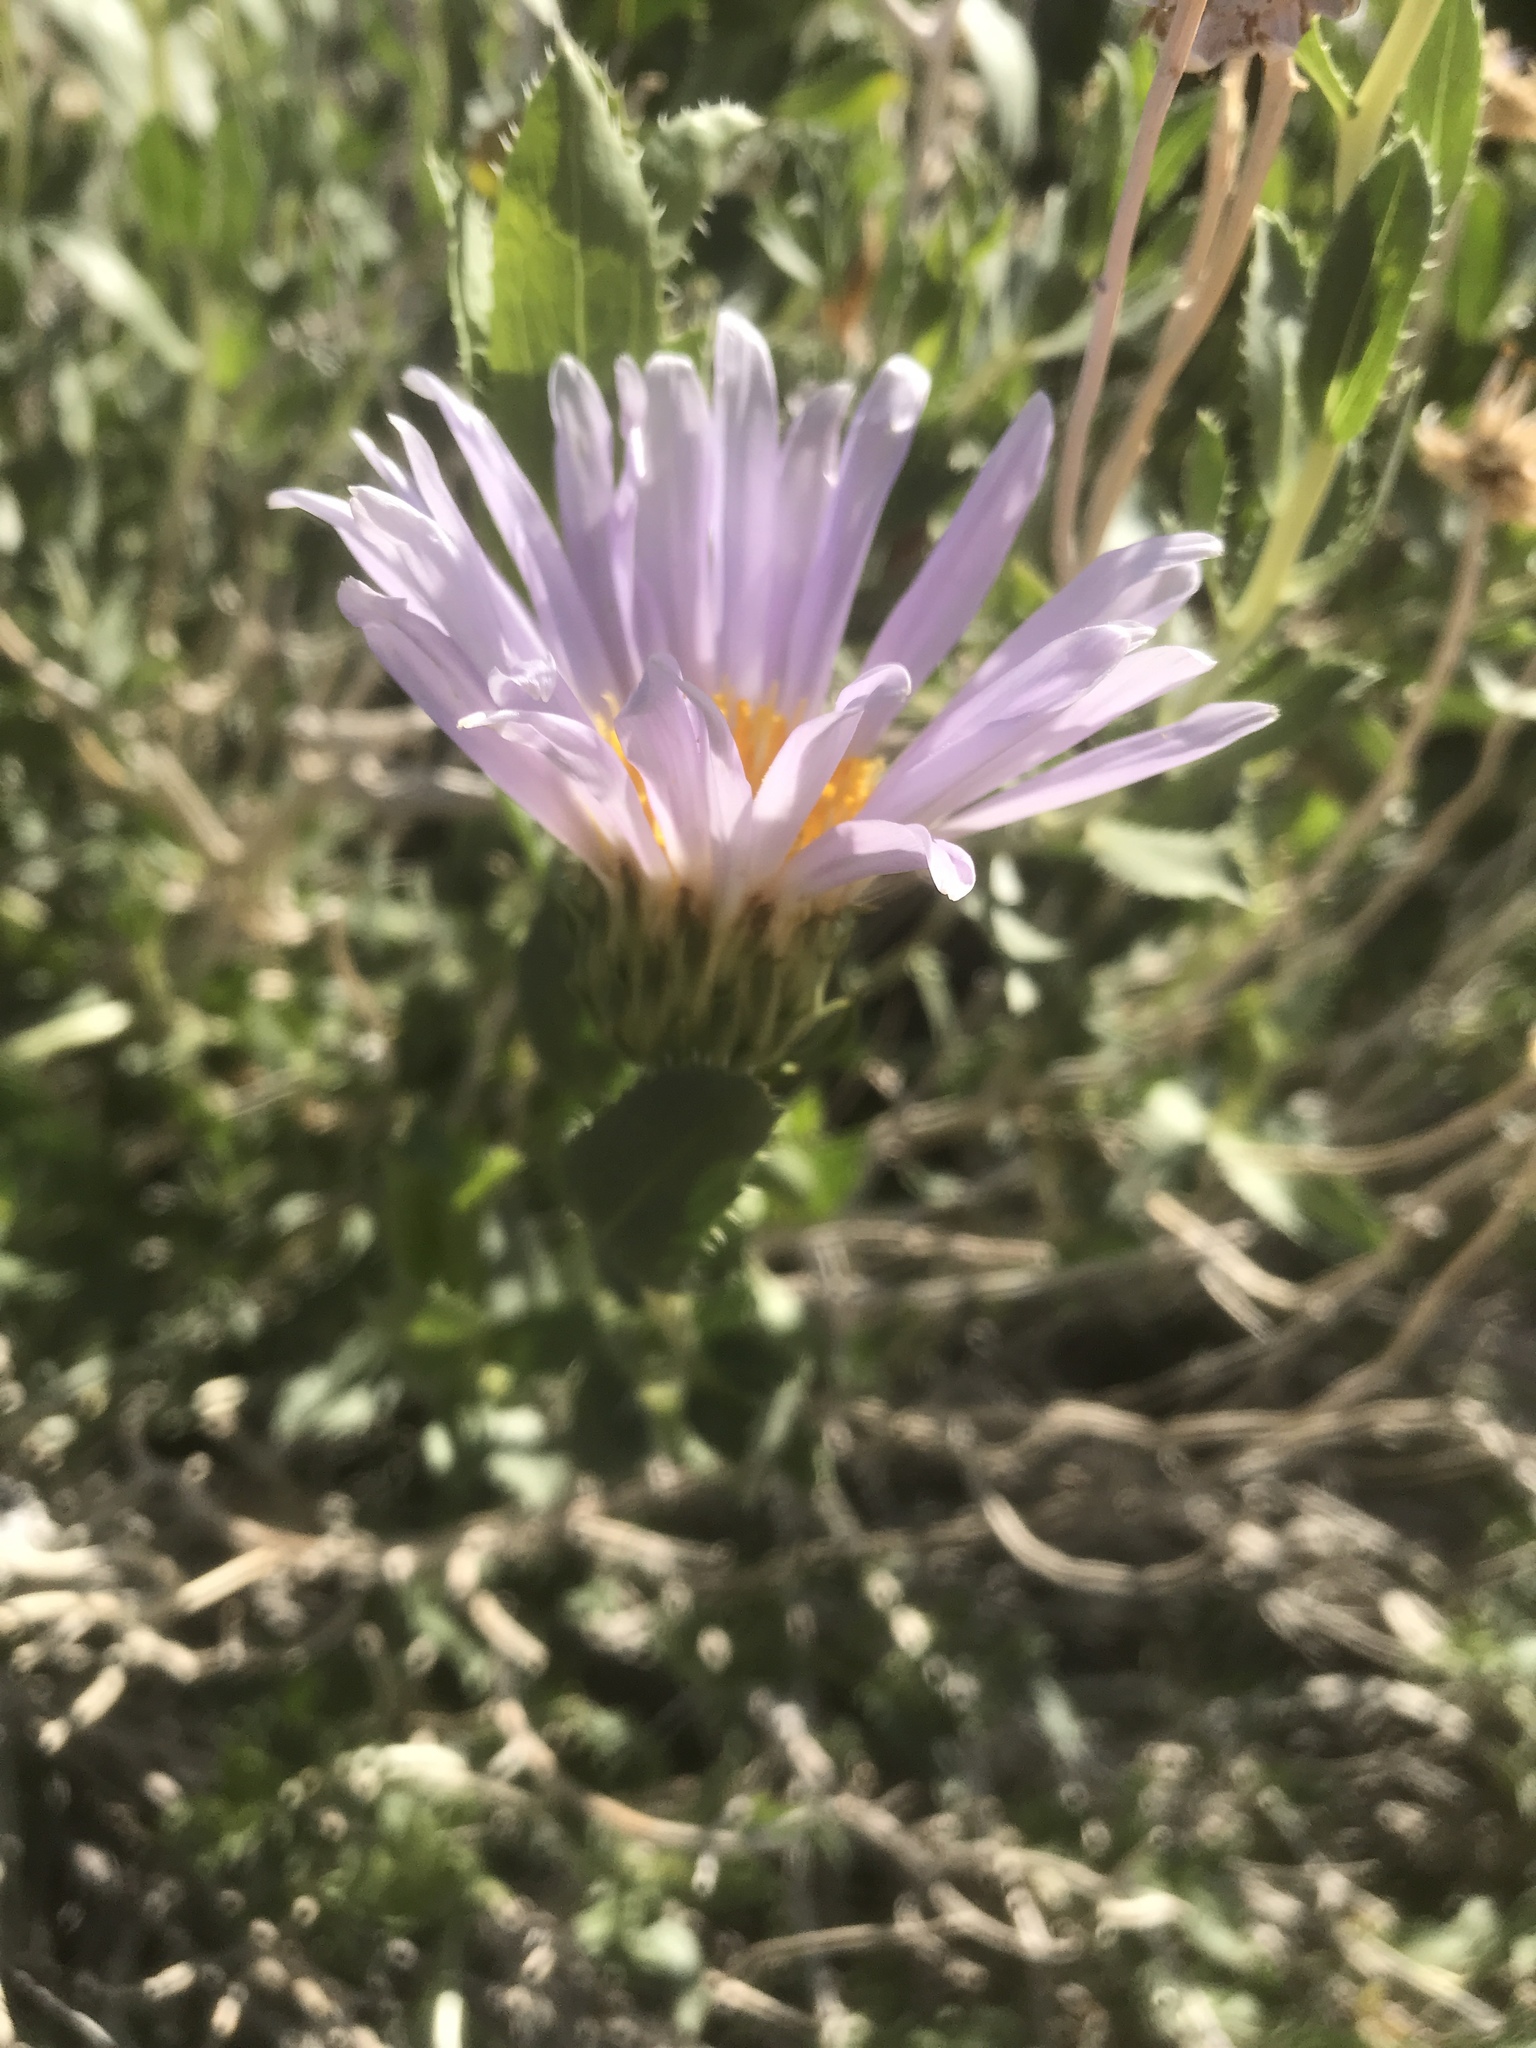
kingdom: Plantae
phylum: Tracheophyta
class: Magnoliopsida
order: Asterales
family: Asteraceae
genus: Xylorhiza
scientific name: Xylorhiza orcuttii
